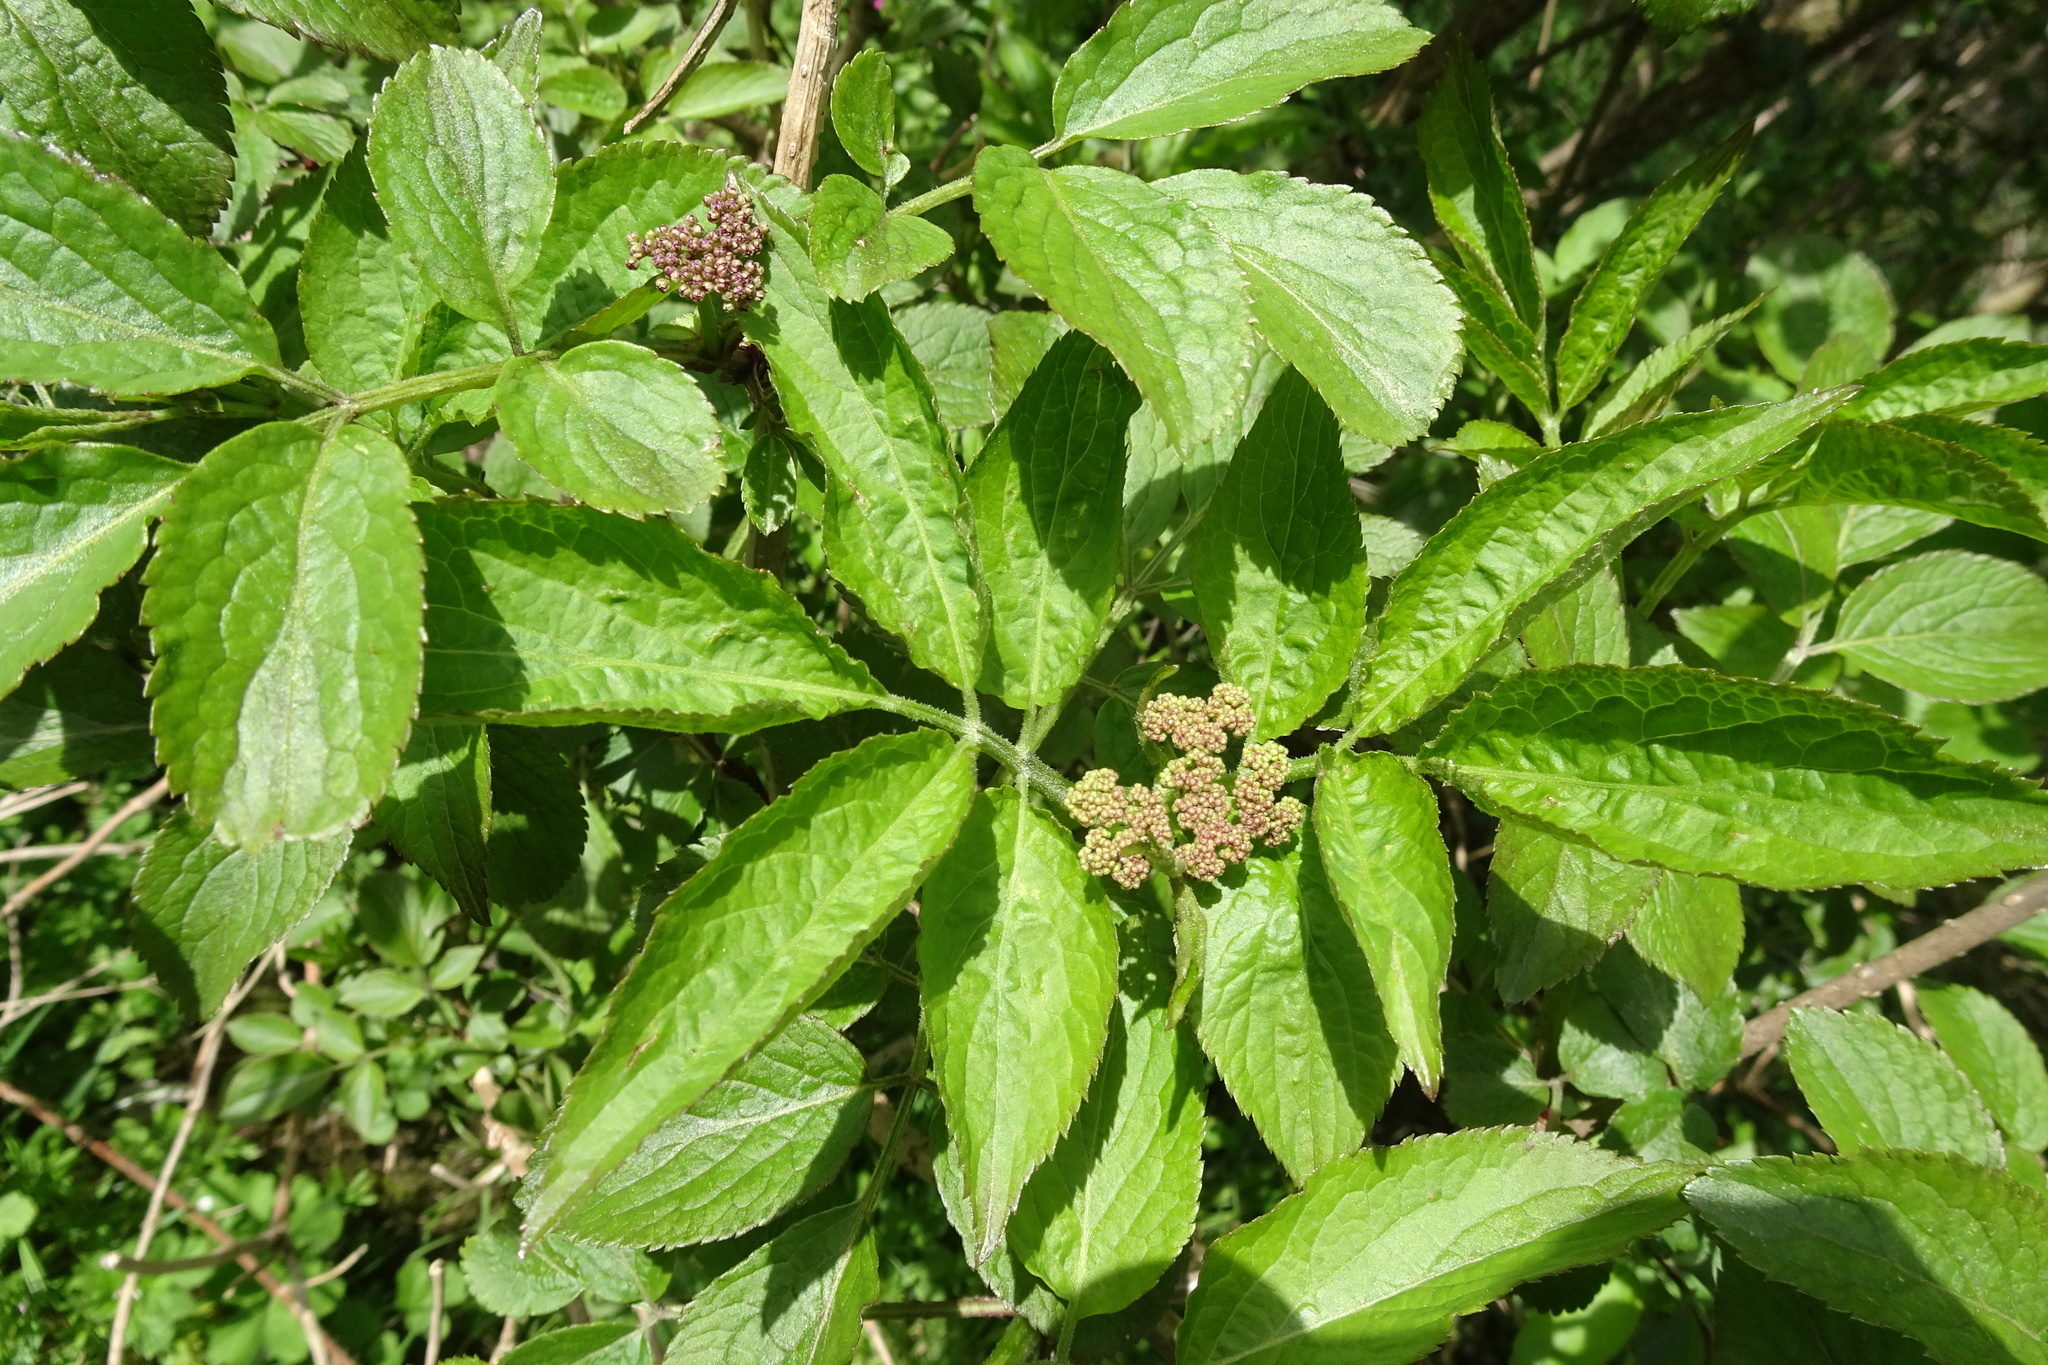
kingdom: Plantae
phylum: Tracheophyta
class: Magnoliopsida
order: Dipsacales
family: Viburnaceae
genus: Sambucus
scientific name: Sambucus nigra
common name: Elder
